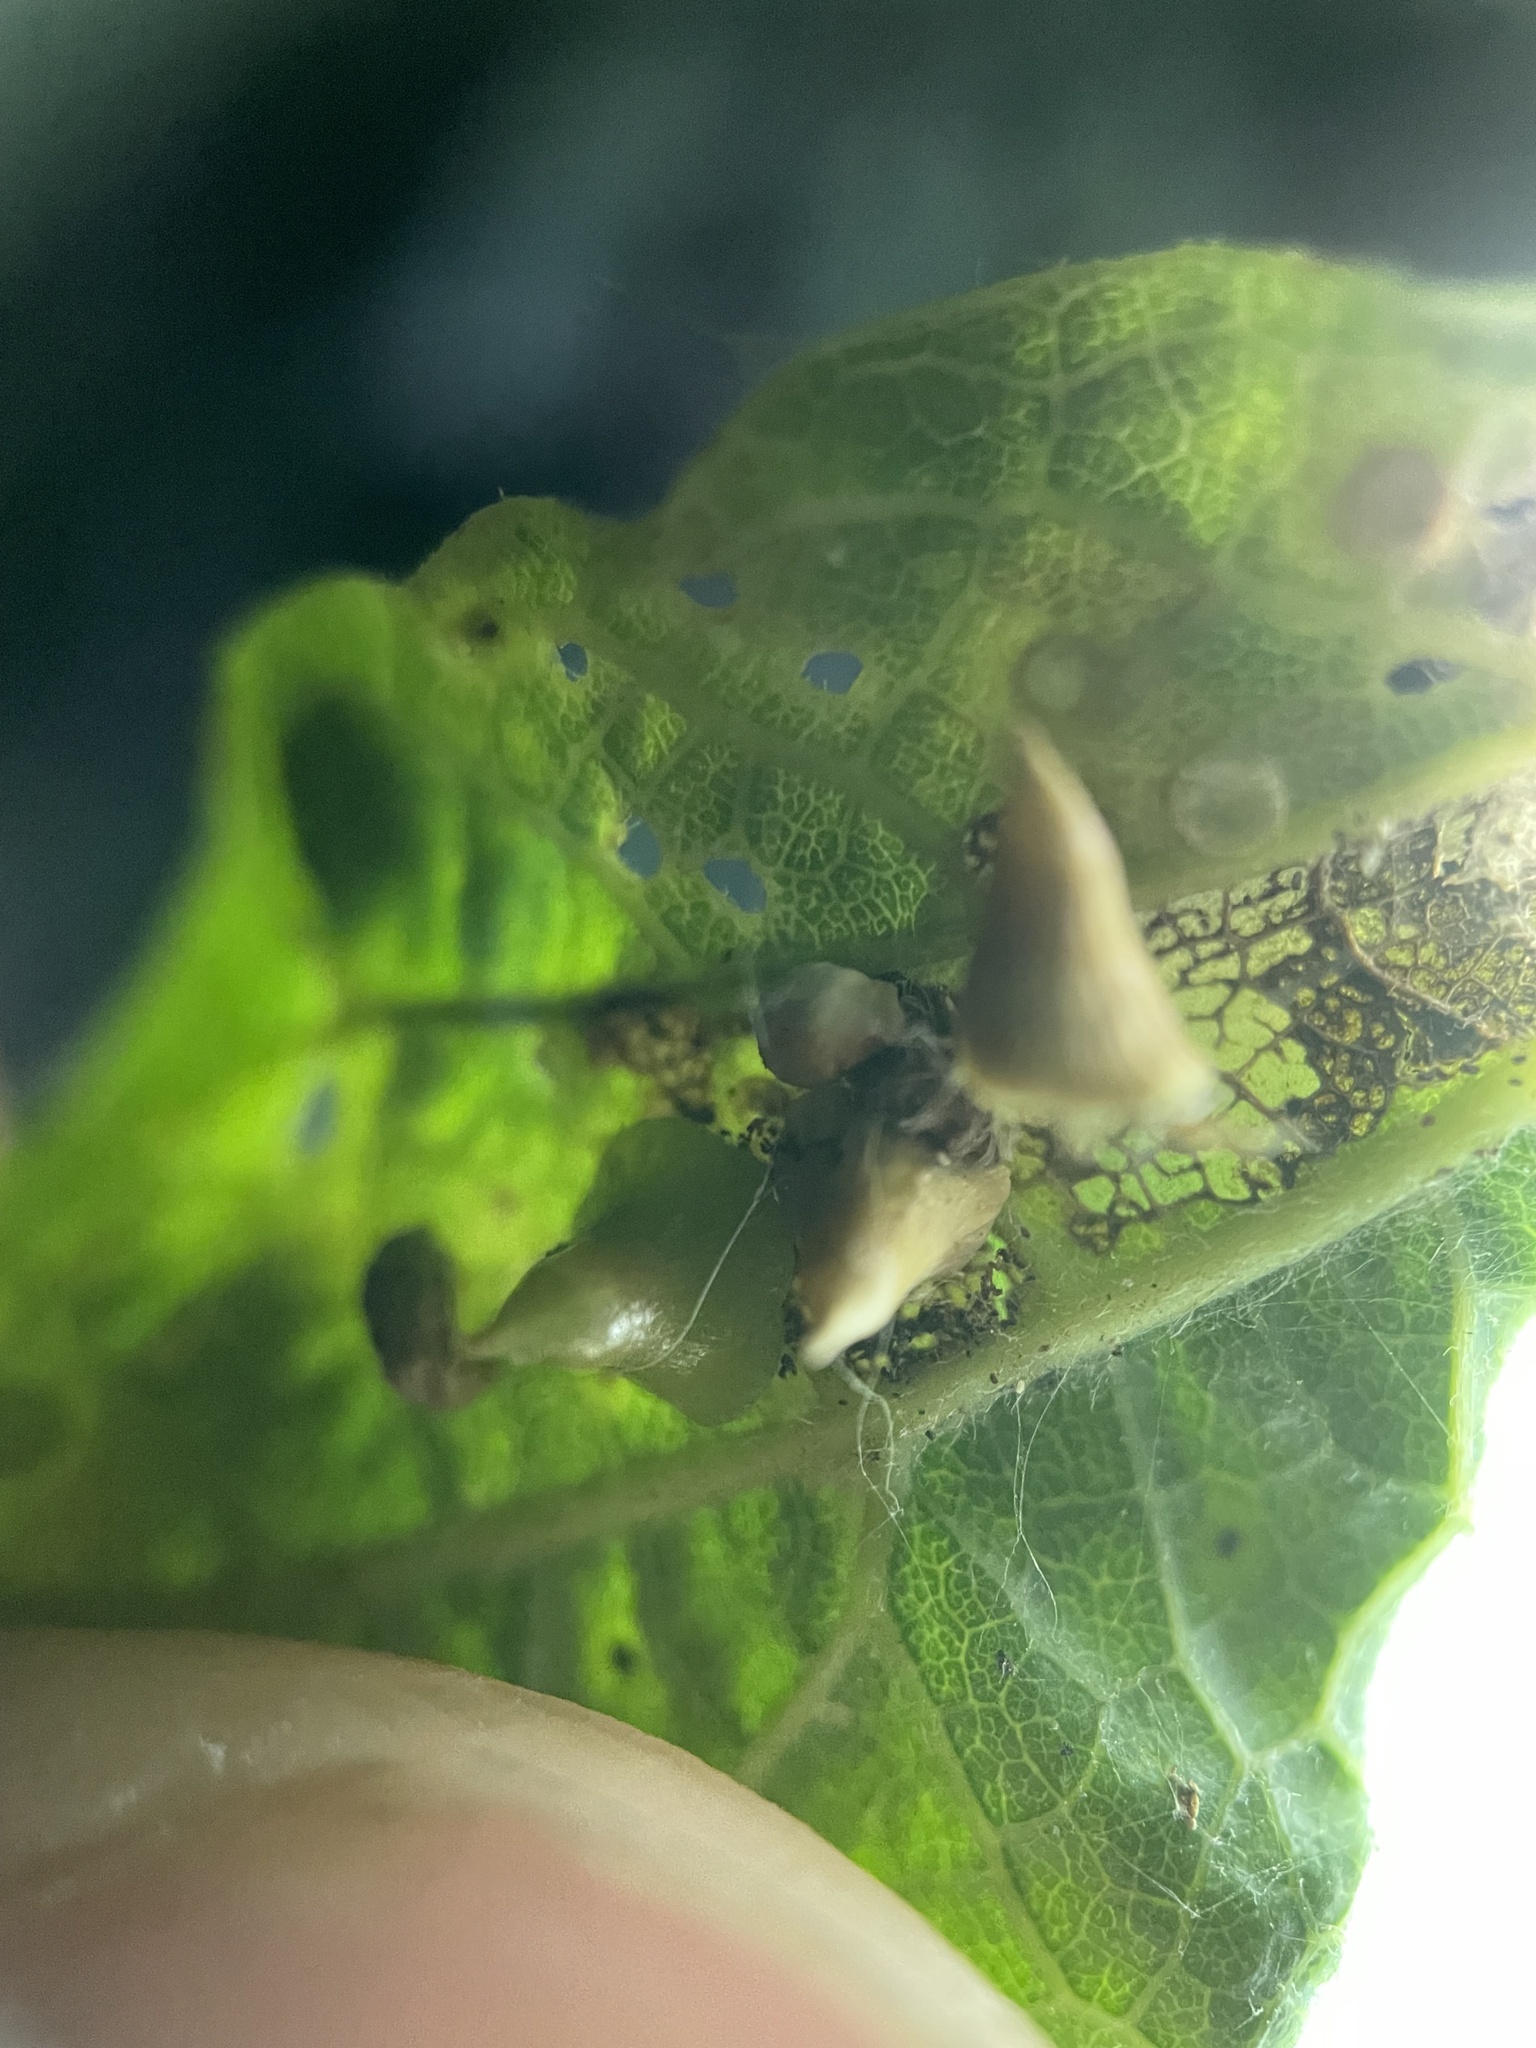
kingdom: Animalia
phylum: Arthropoda
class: Insecta
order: Diptera
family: Cecidomyiidae
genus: Celticecis
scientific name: Celticecis spiniformis
